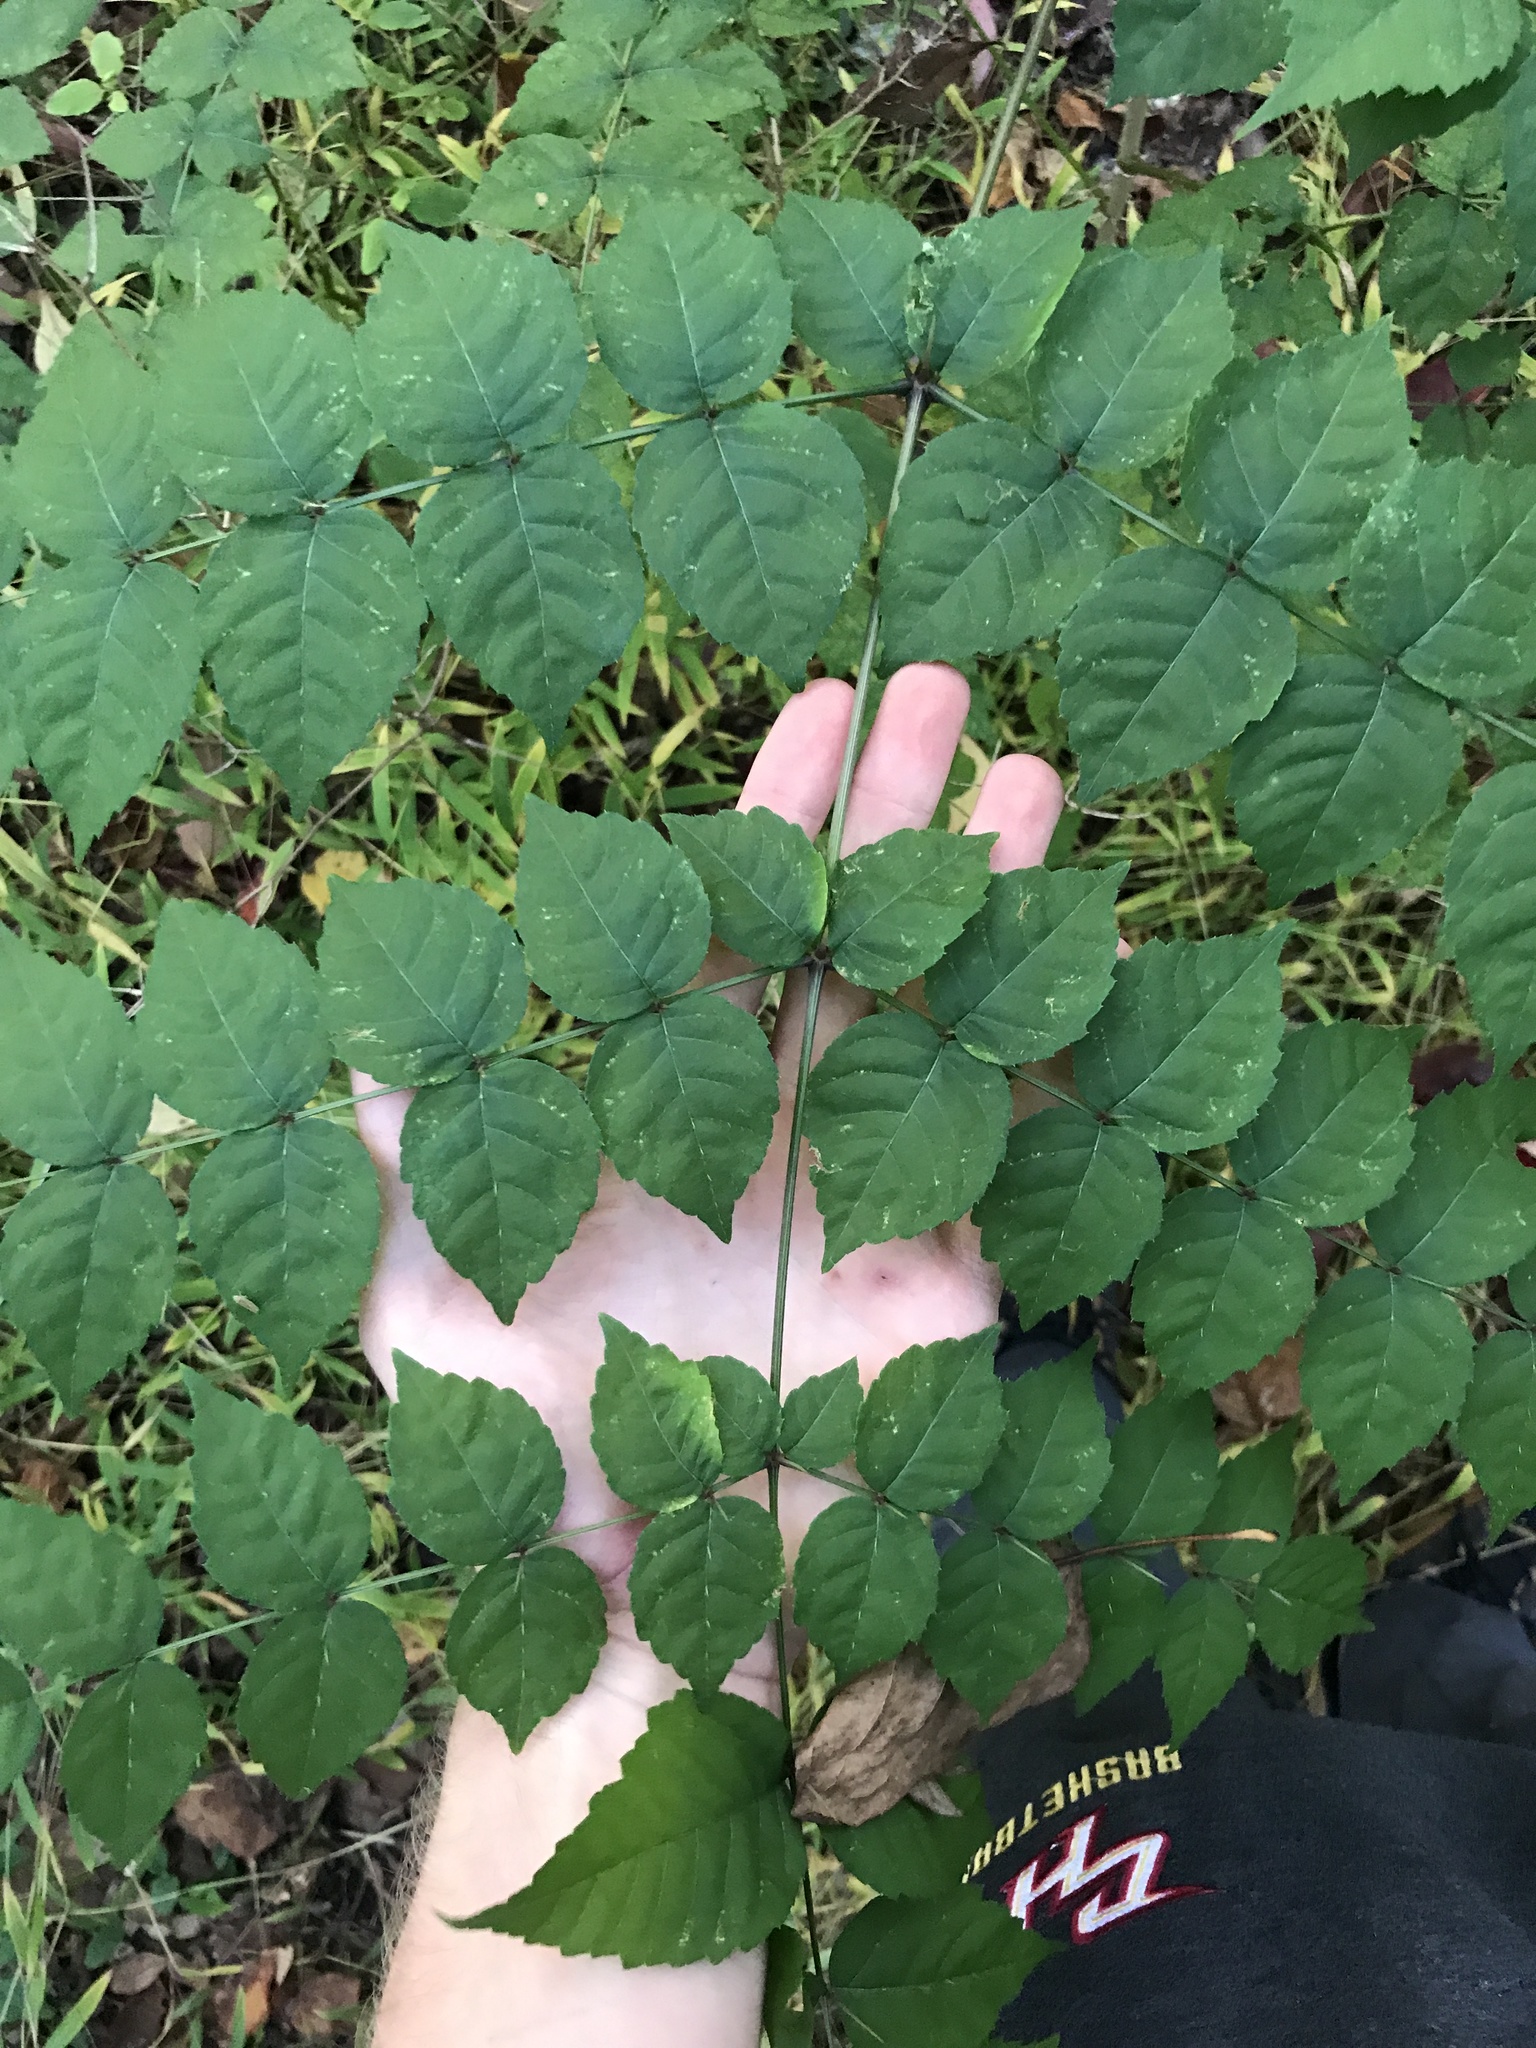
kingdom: Plantae
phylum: Tracheophyta
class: Magnoliopsida
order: Apiales
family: Araliaceae
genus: Aralia
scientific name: Aralia elata
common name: Japanese angelica-tree
